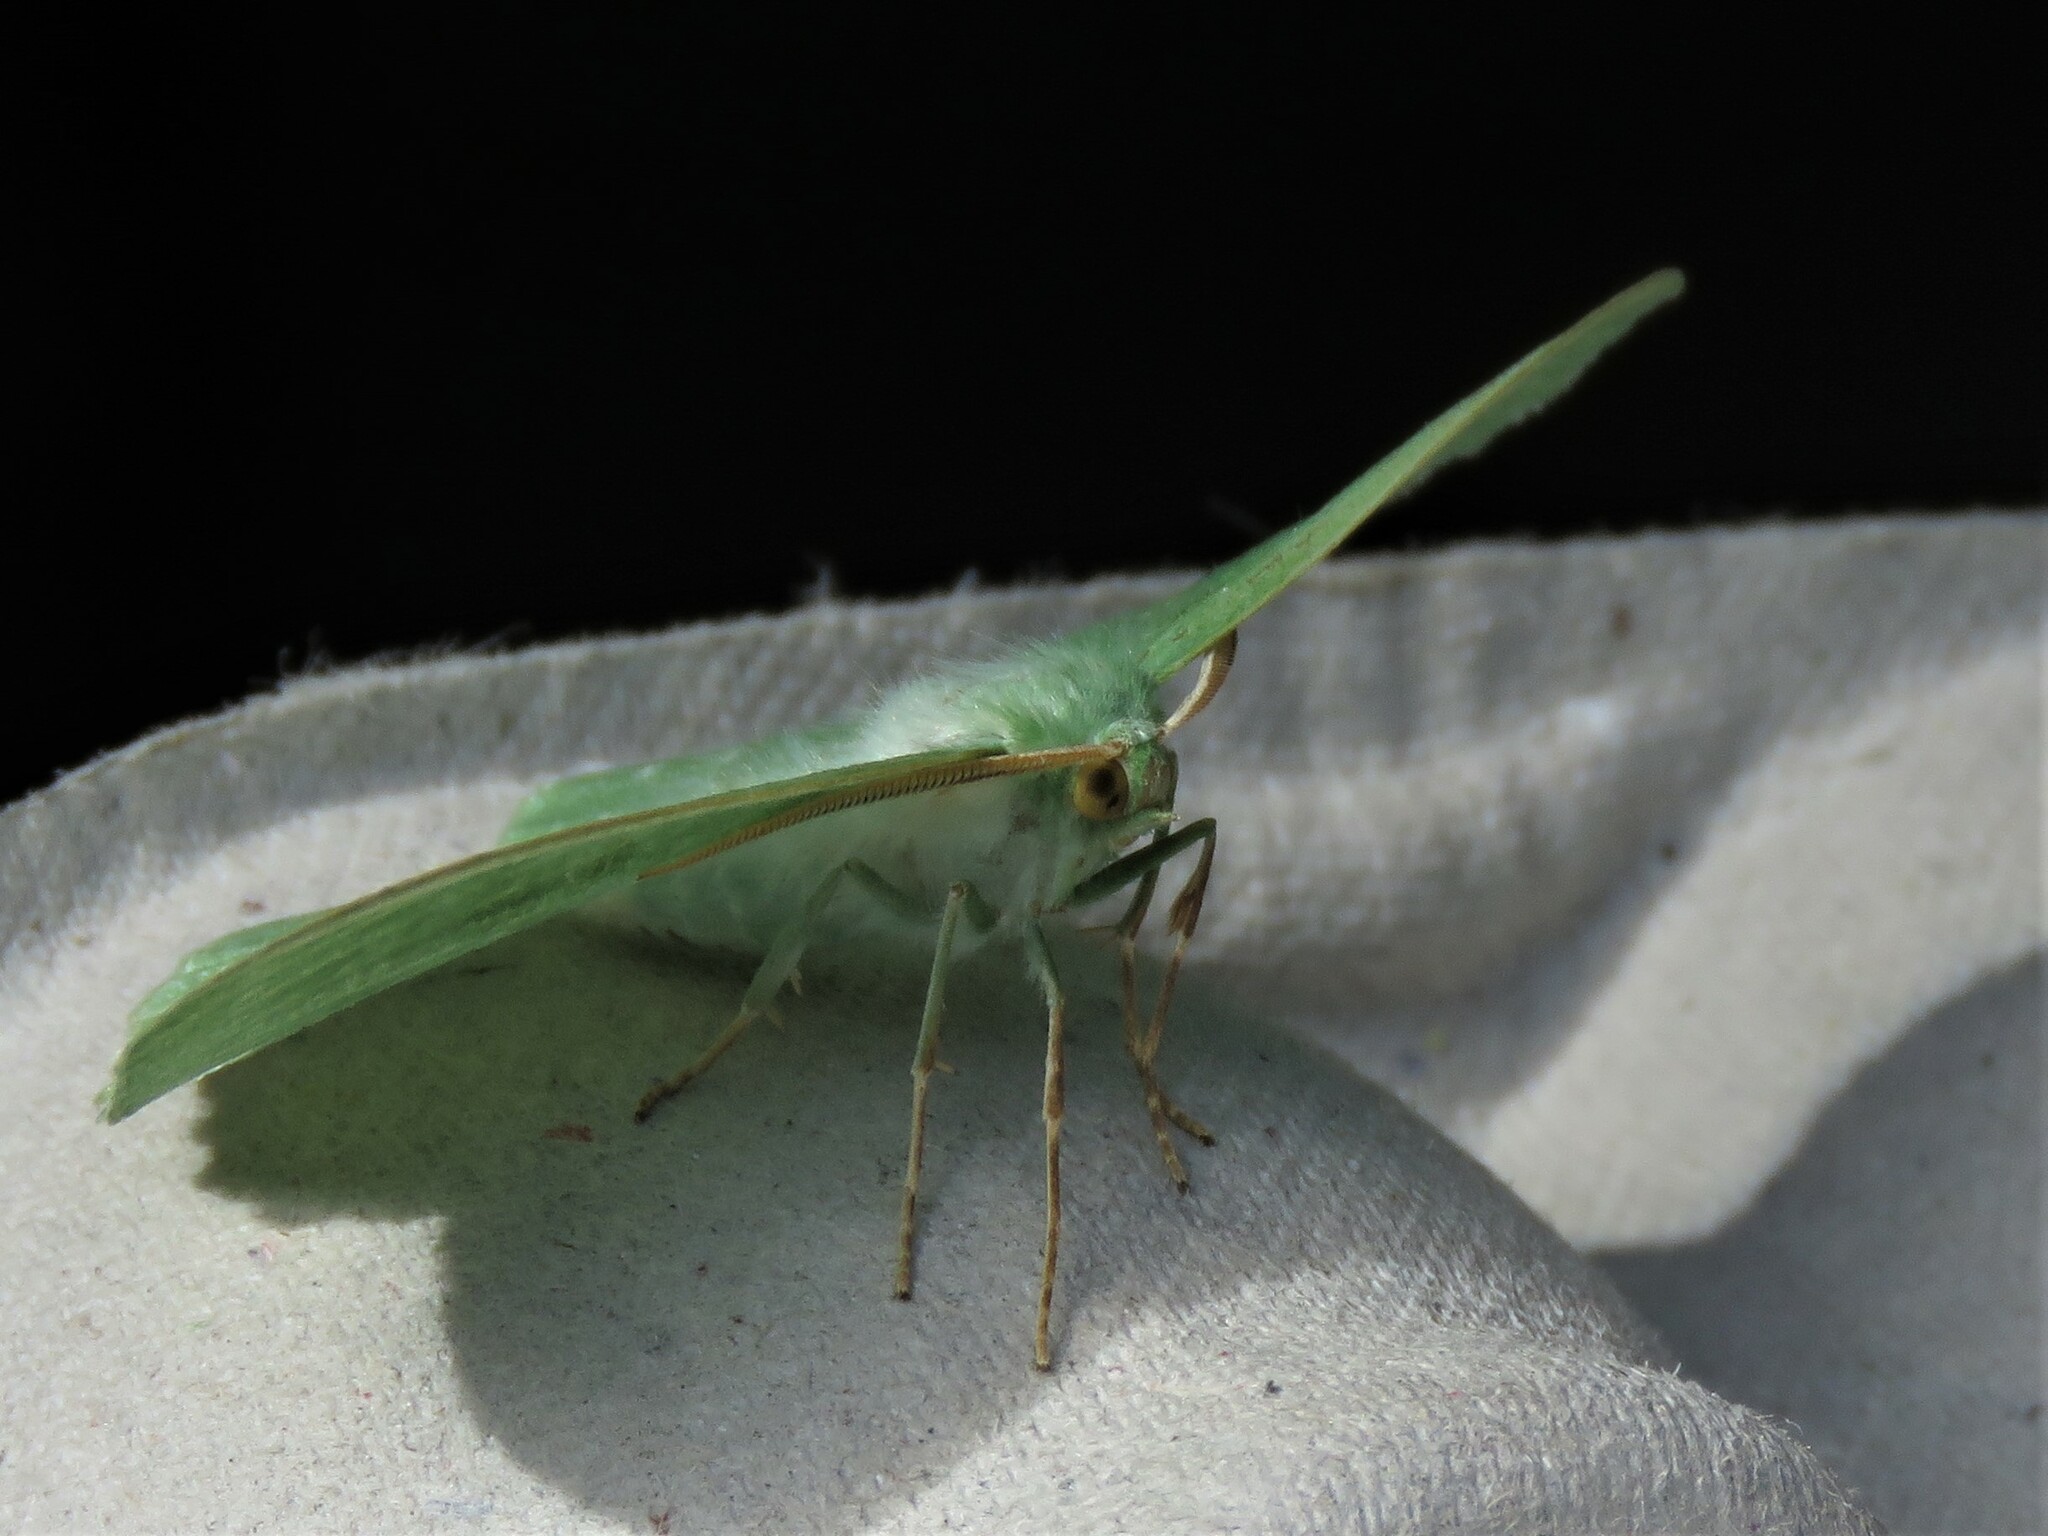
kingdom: Animalia
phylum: Arthropoda
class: Insecta
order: Lepidoptera
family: Geometridae
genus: Geometra
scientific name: Geometra papilionaria
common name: Large emerald
